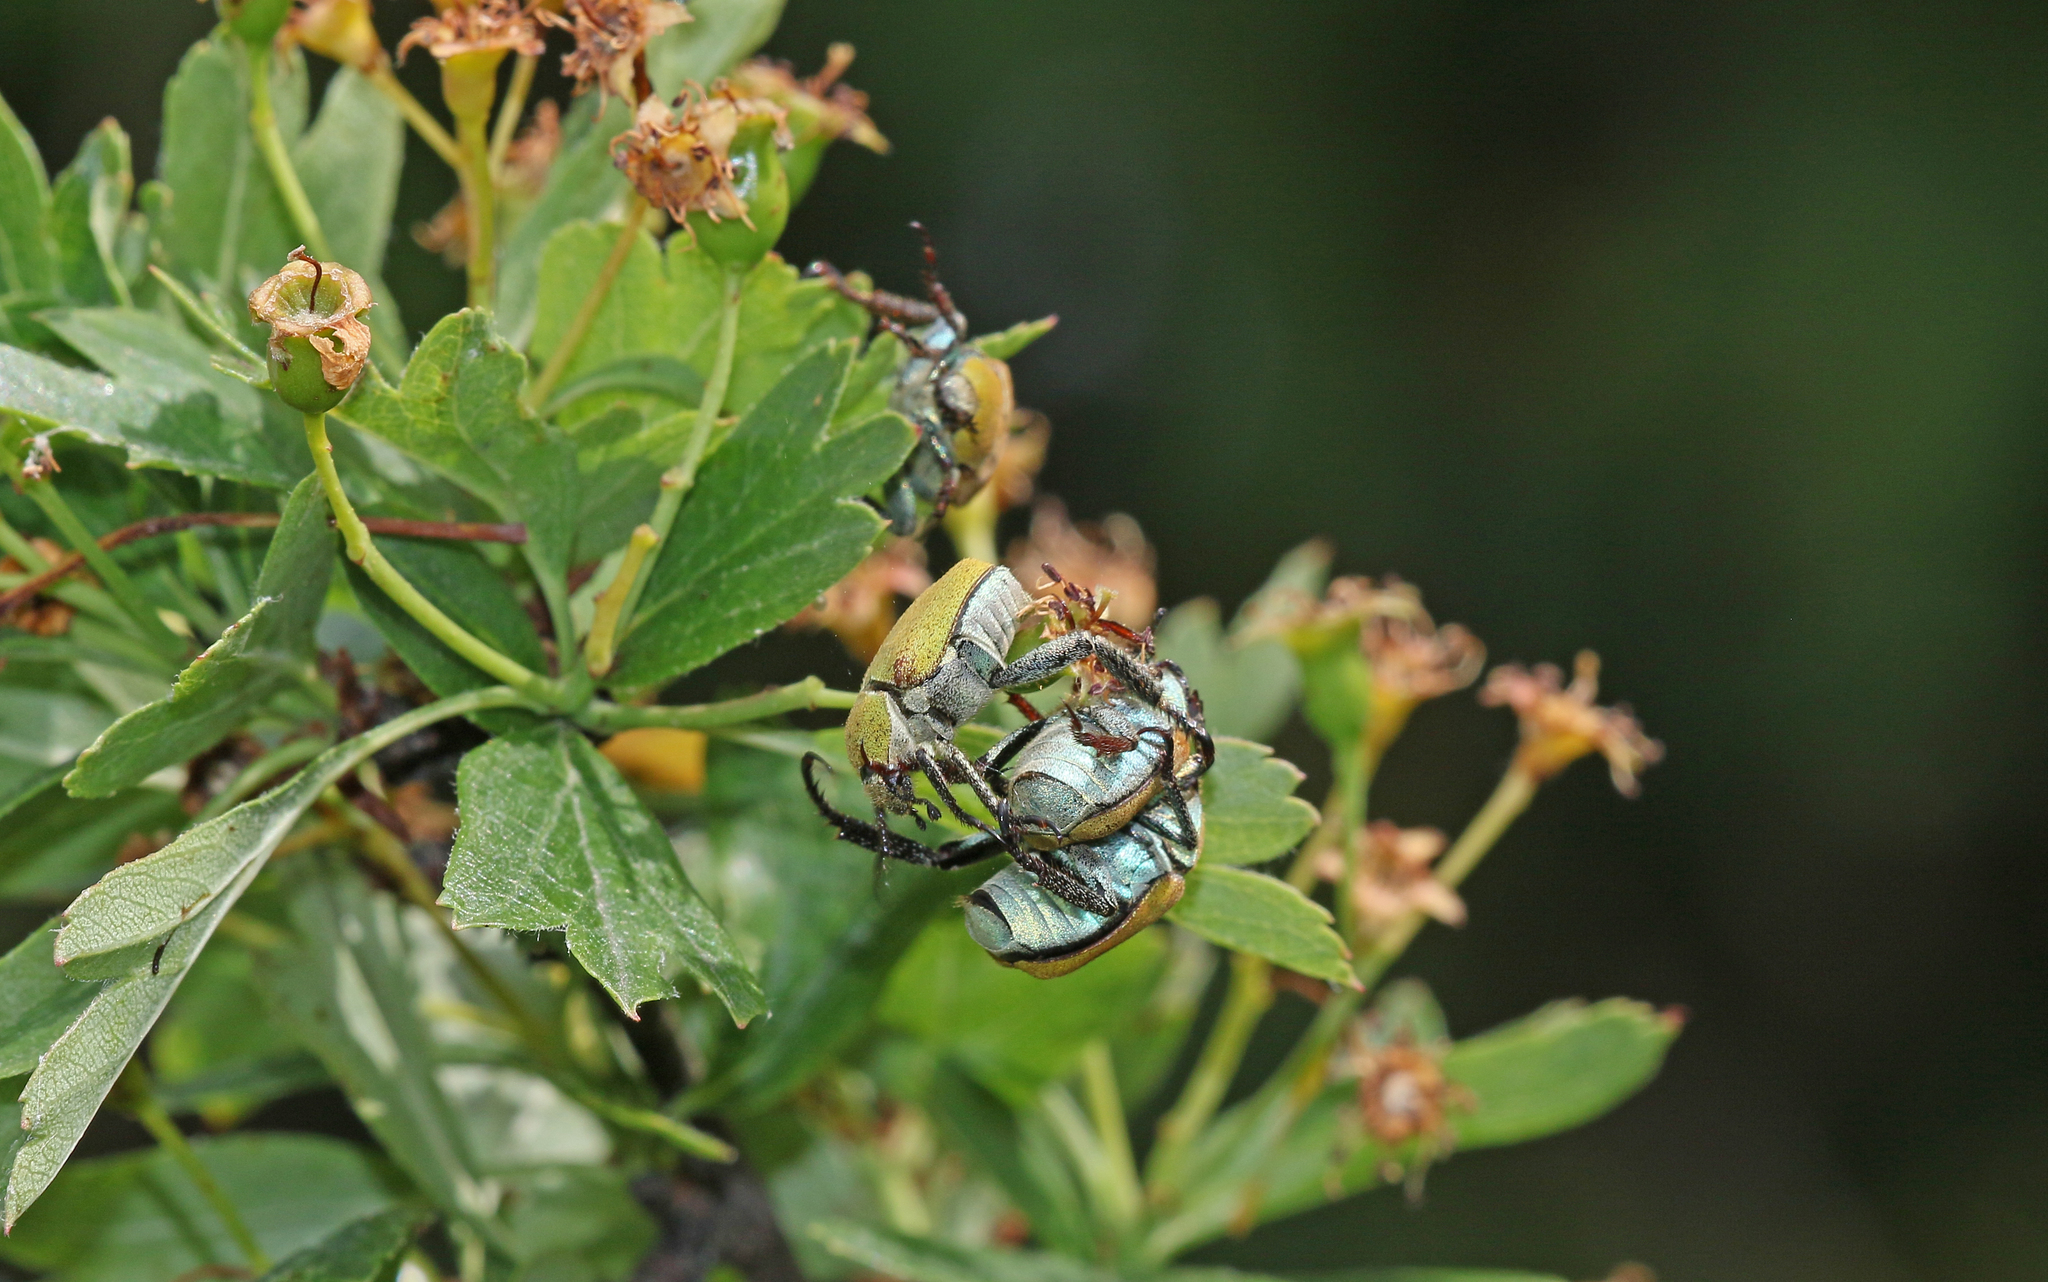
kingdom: Animalia
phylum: Arthropoda
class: Insecta
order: Coleoptera
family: Scarabaeidae
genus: Hoplia
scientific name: Hoplia argentea
